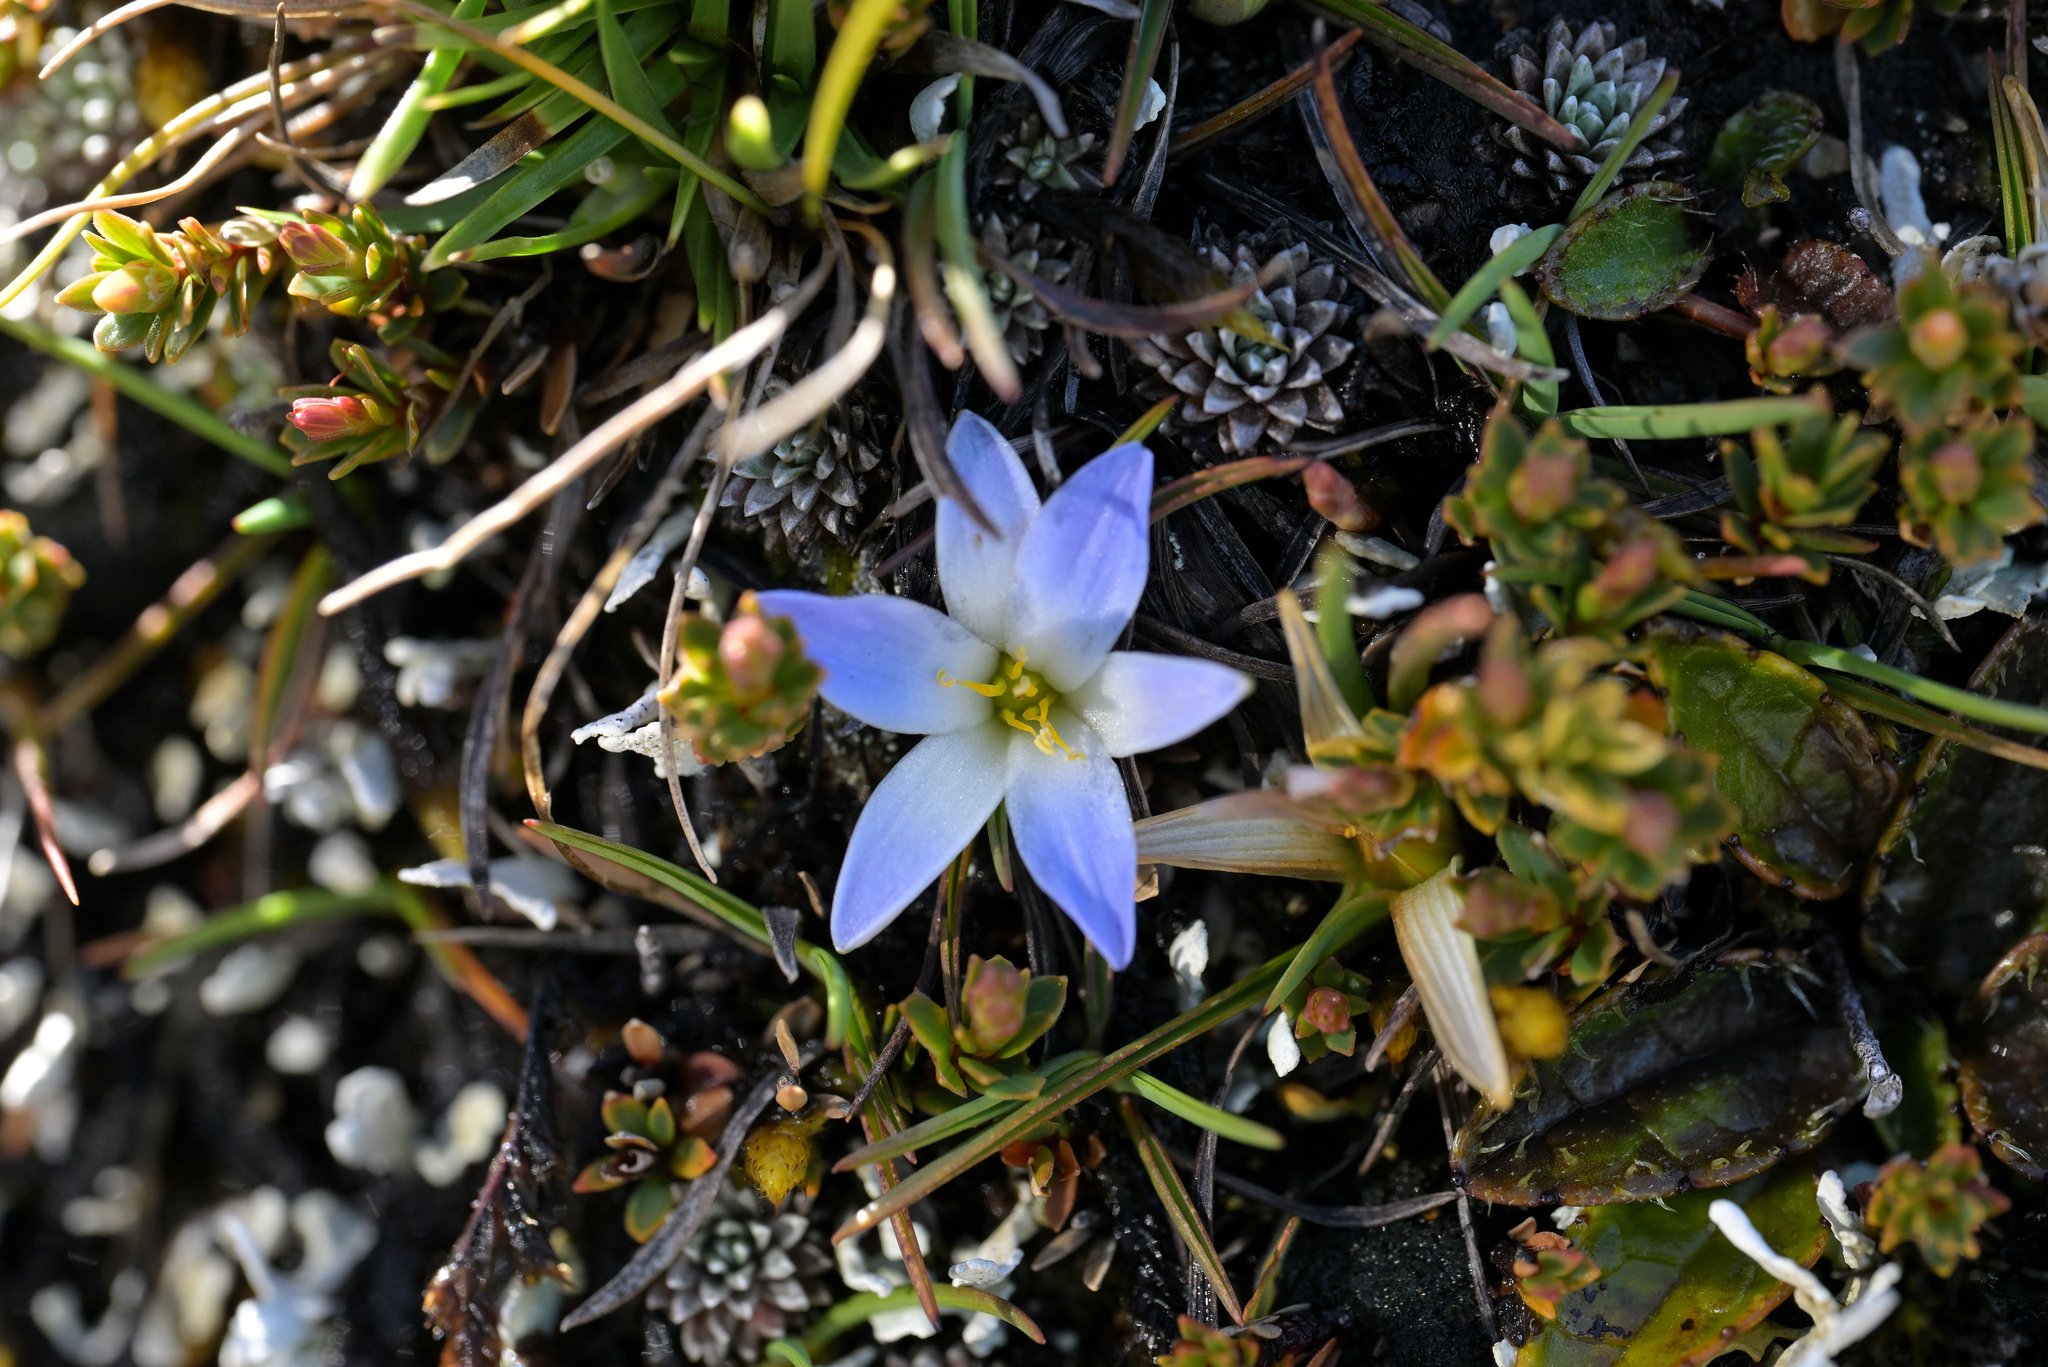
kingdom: Plantae
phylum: Tracheophyta
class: Liliopsida
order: Asparagales
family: Asphodelaceae
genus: Herpolirion
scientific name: Herpolirion novae-zelandiae
